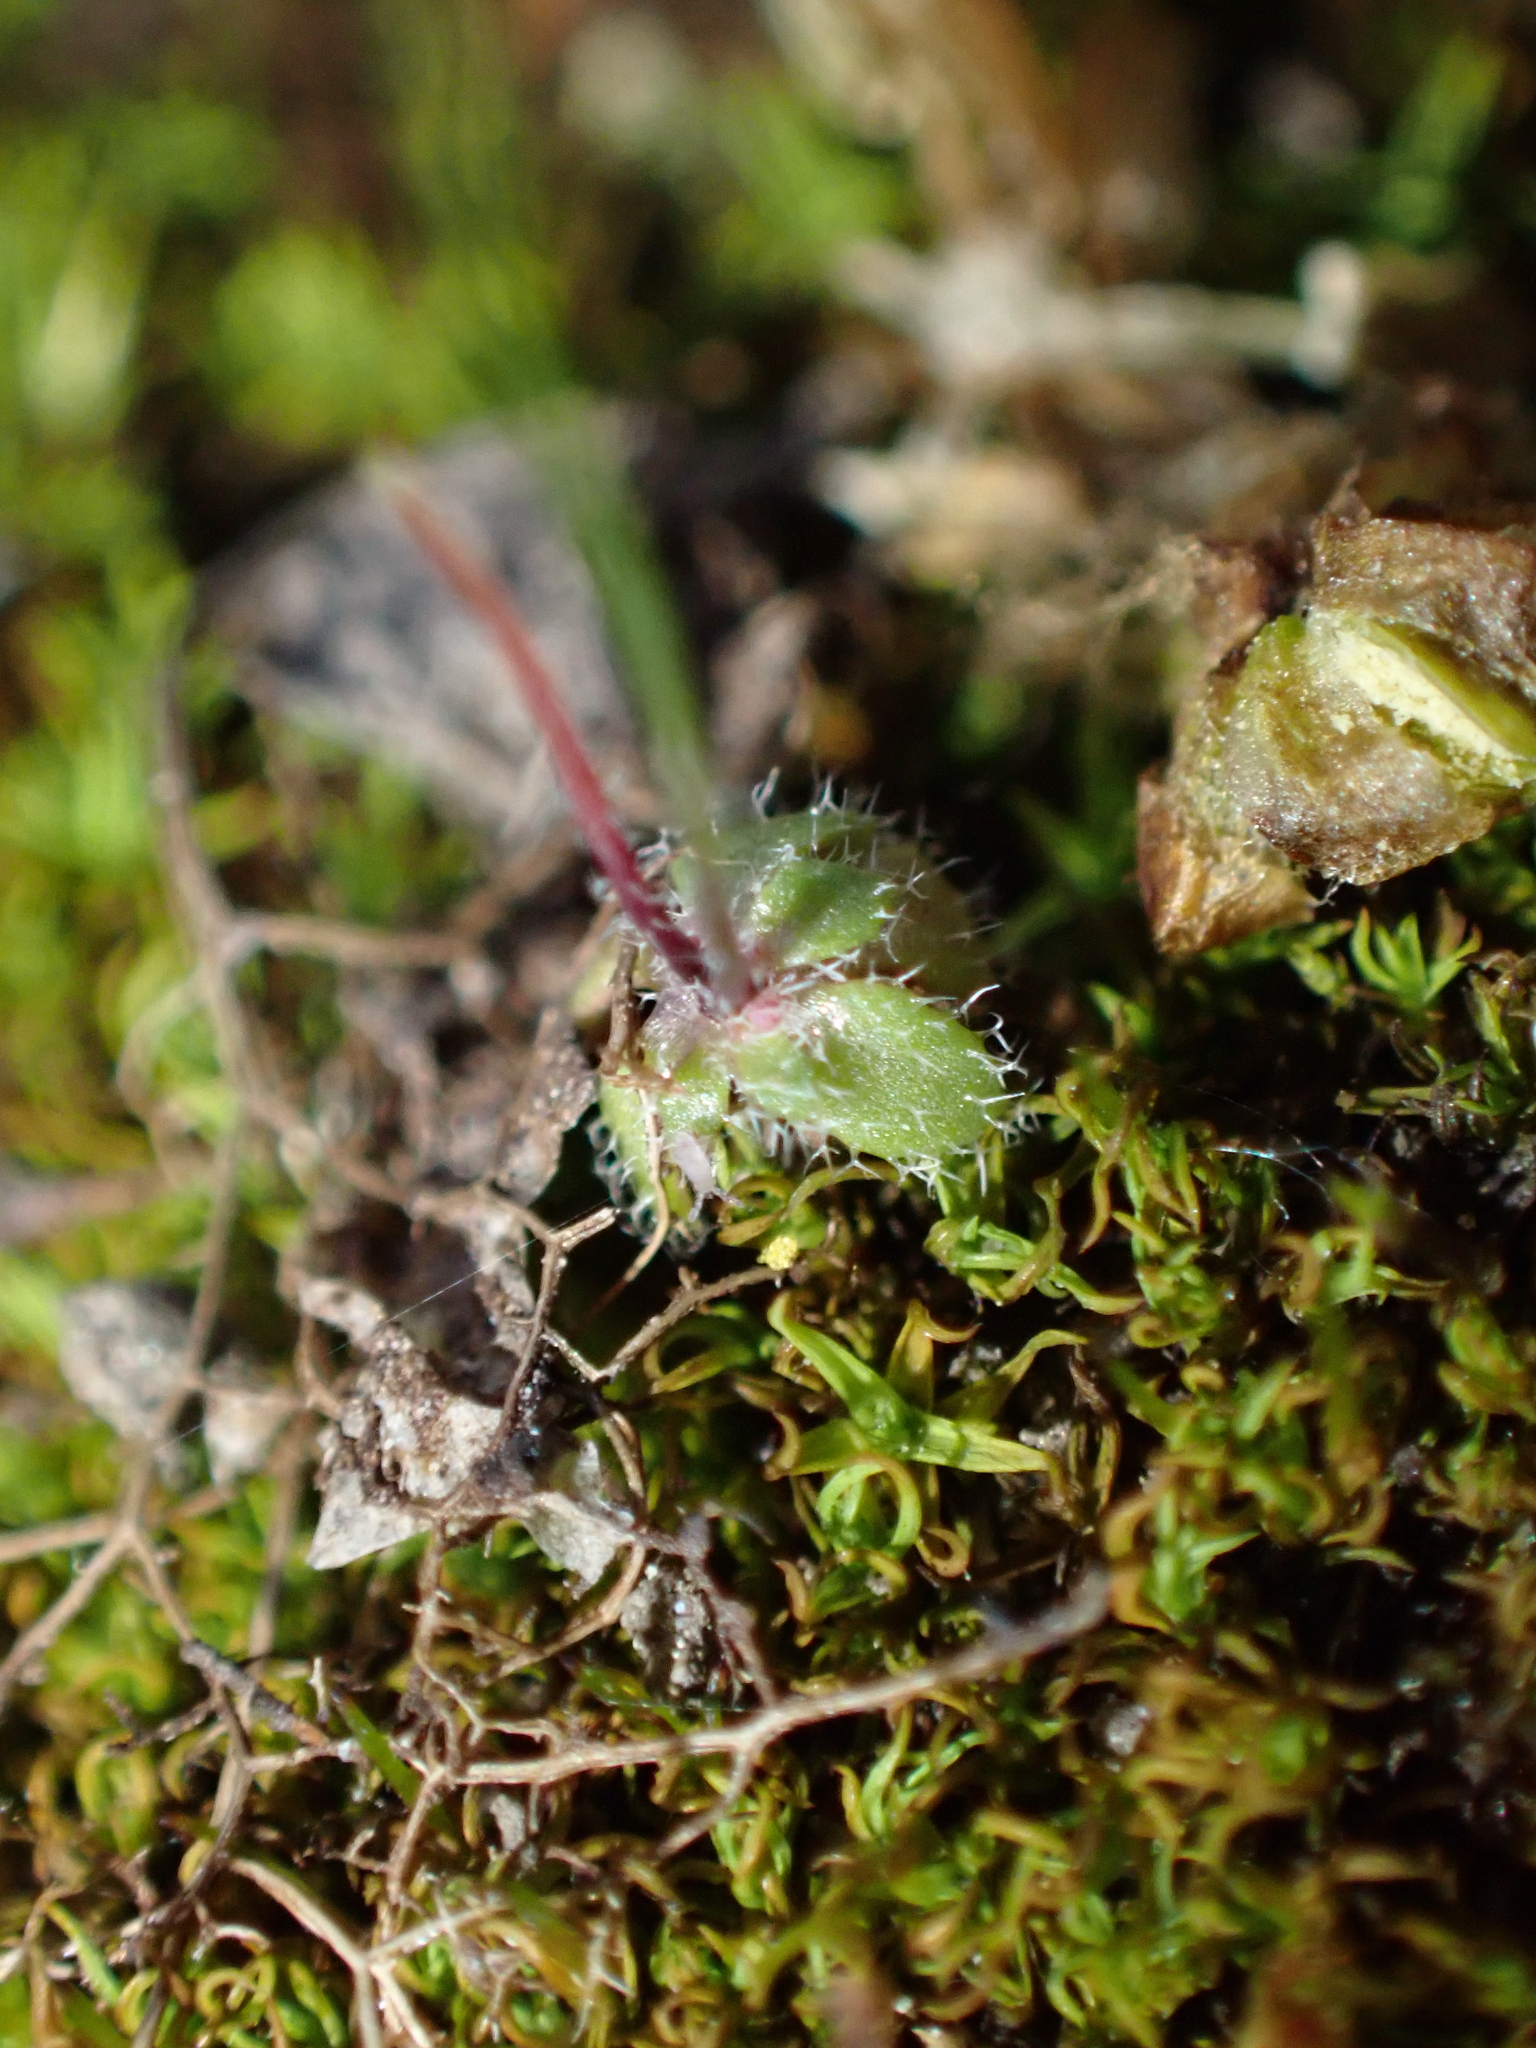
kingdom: Plantae
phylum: Tracheophyta
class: Magnoliopsida
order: Brassicales
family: Brassicaceae
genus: Draba
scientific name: Draba verna
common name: Spring draba
